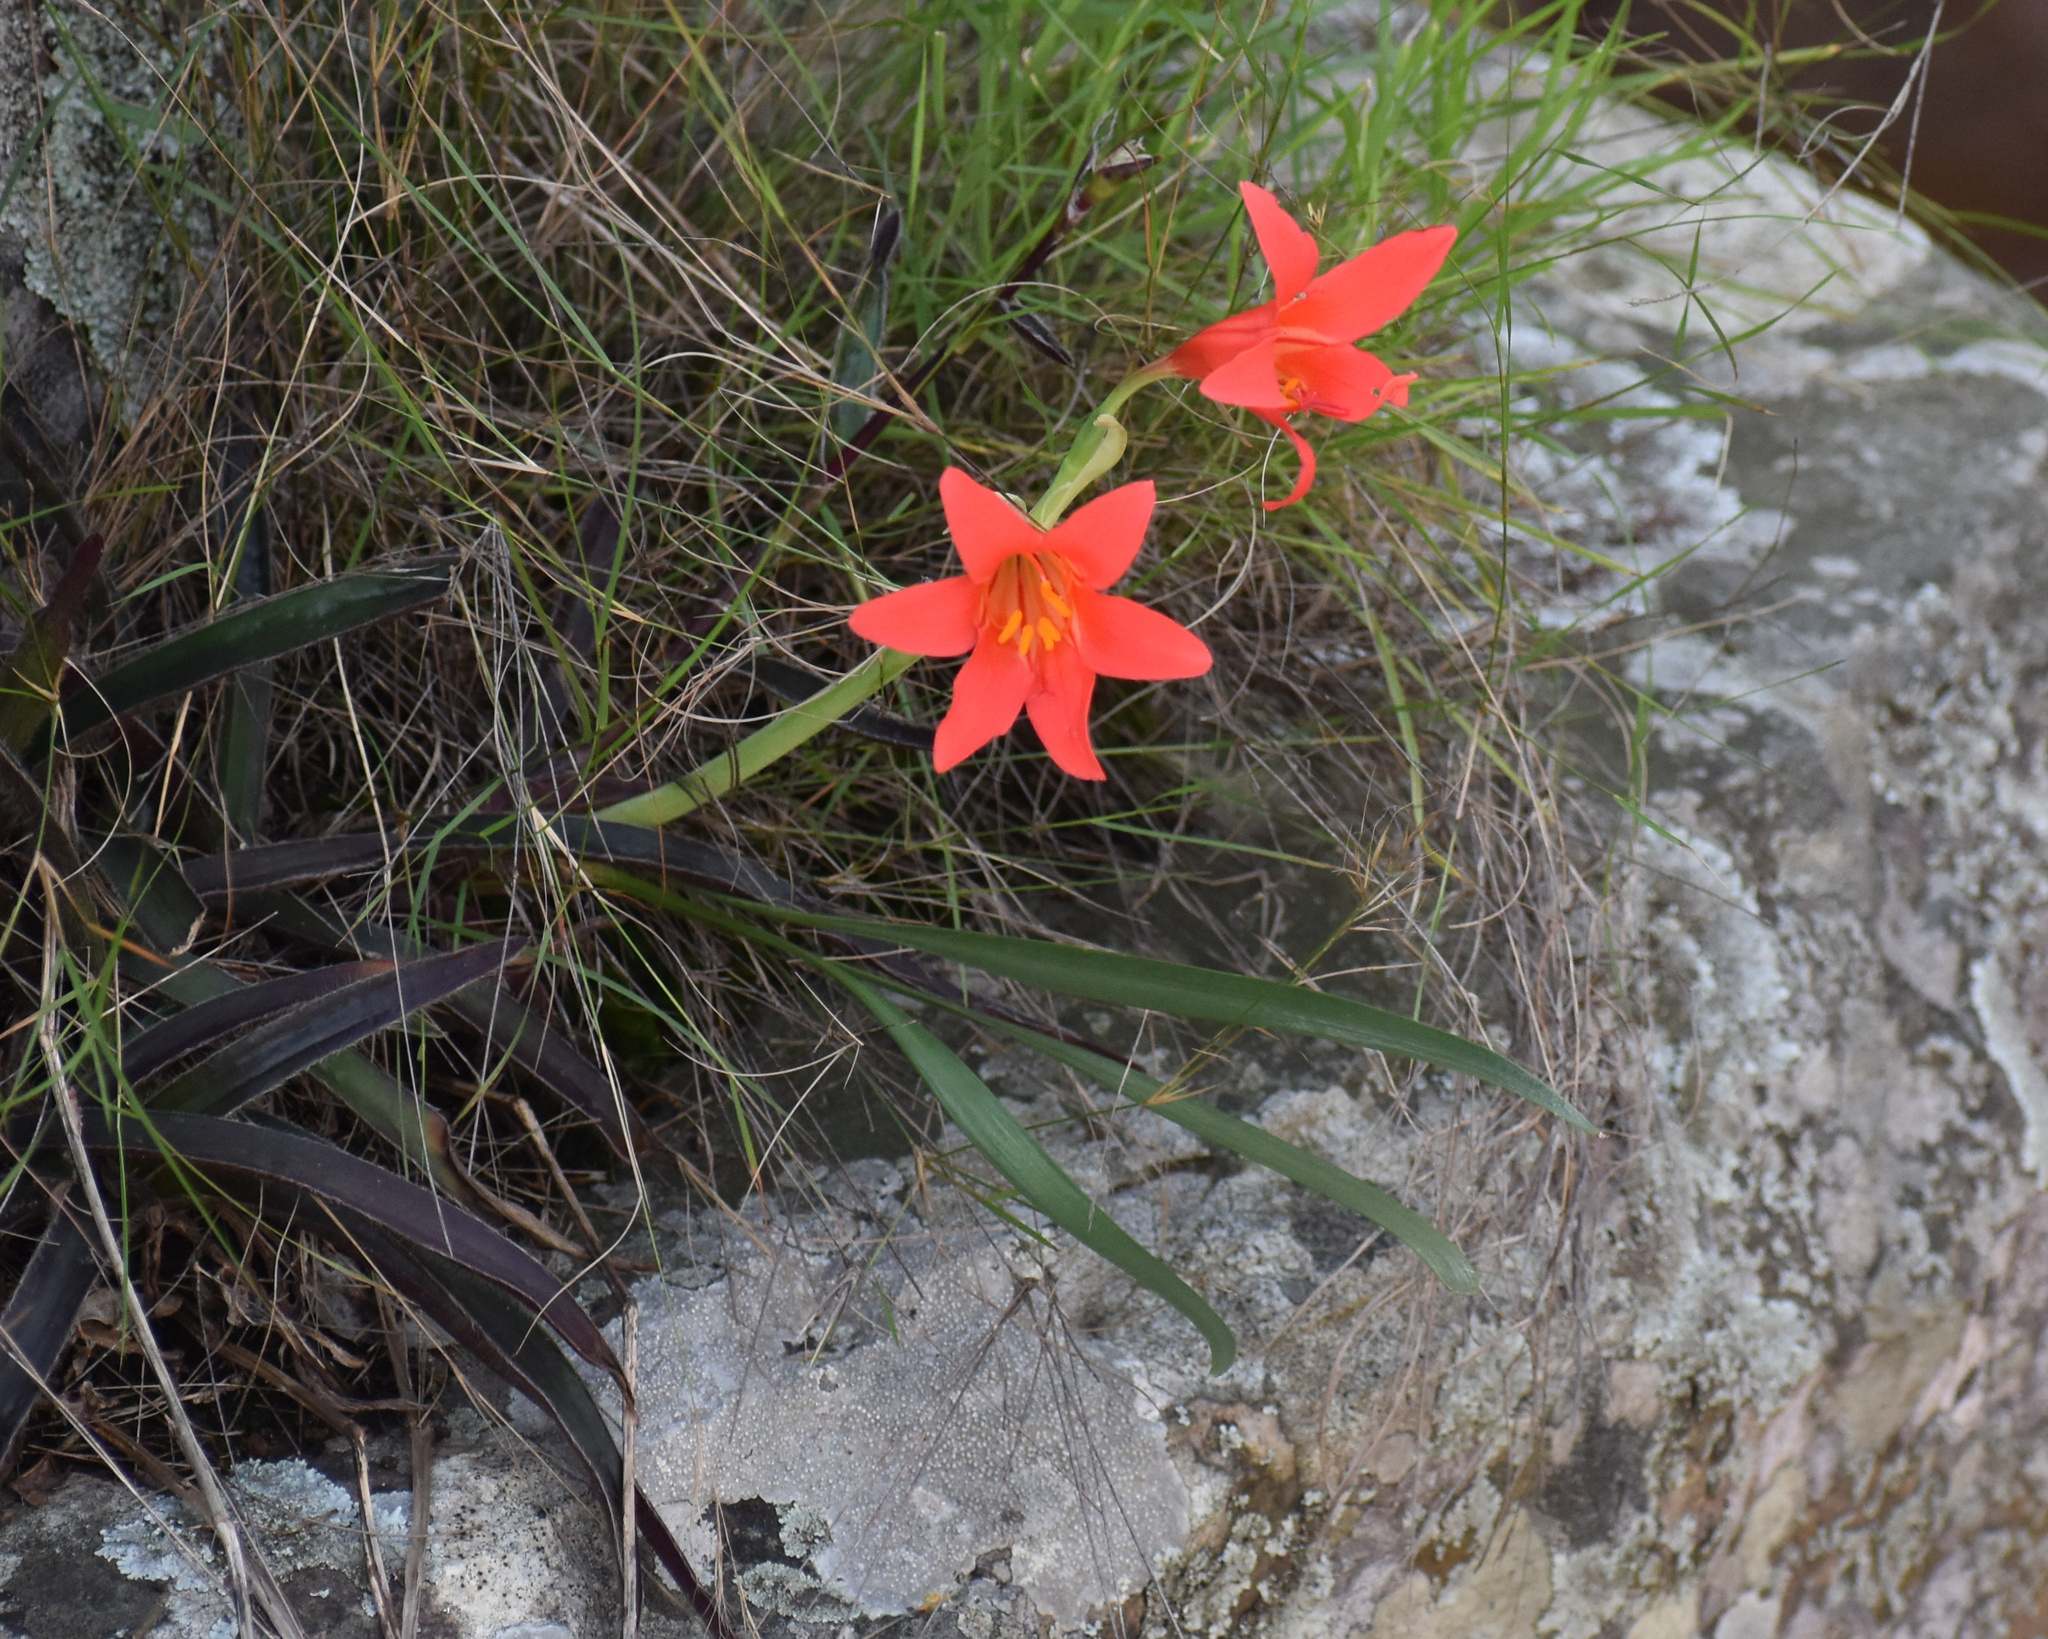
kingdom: Plantae
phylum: Tracheophyta
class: Liliopsida
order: Asparagales
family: Amaryllidaceae
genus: Cyrtanthus
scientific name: Cyrtanthus sanguineus
